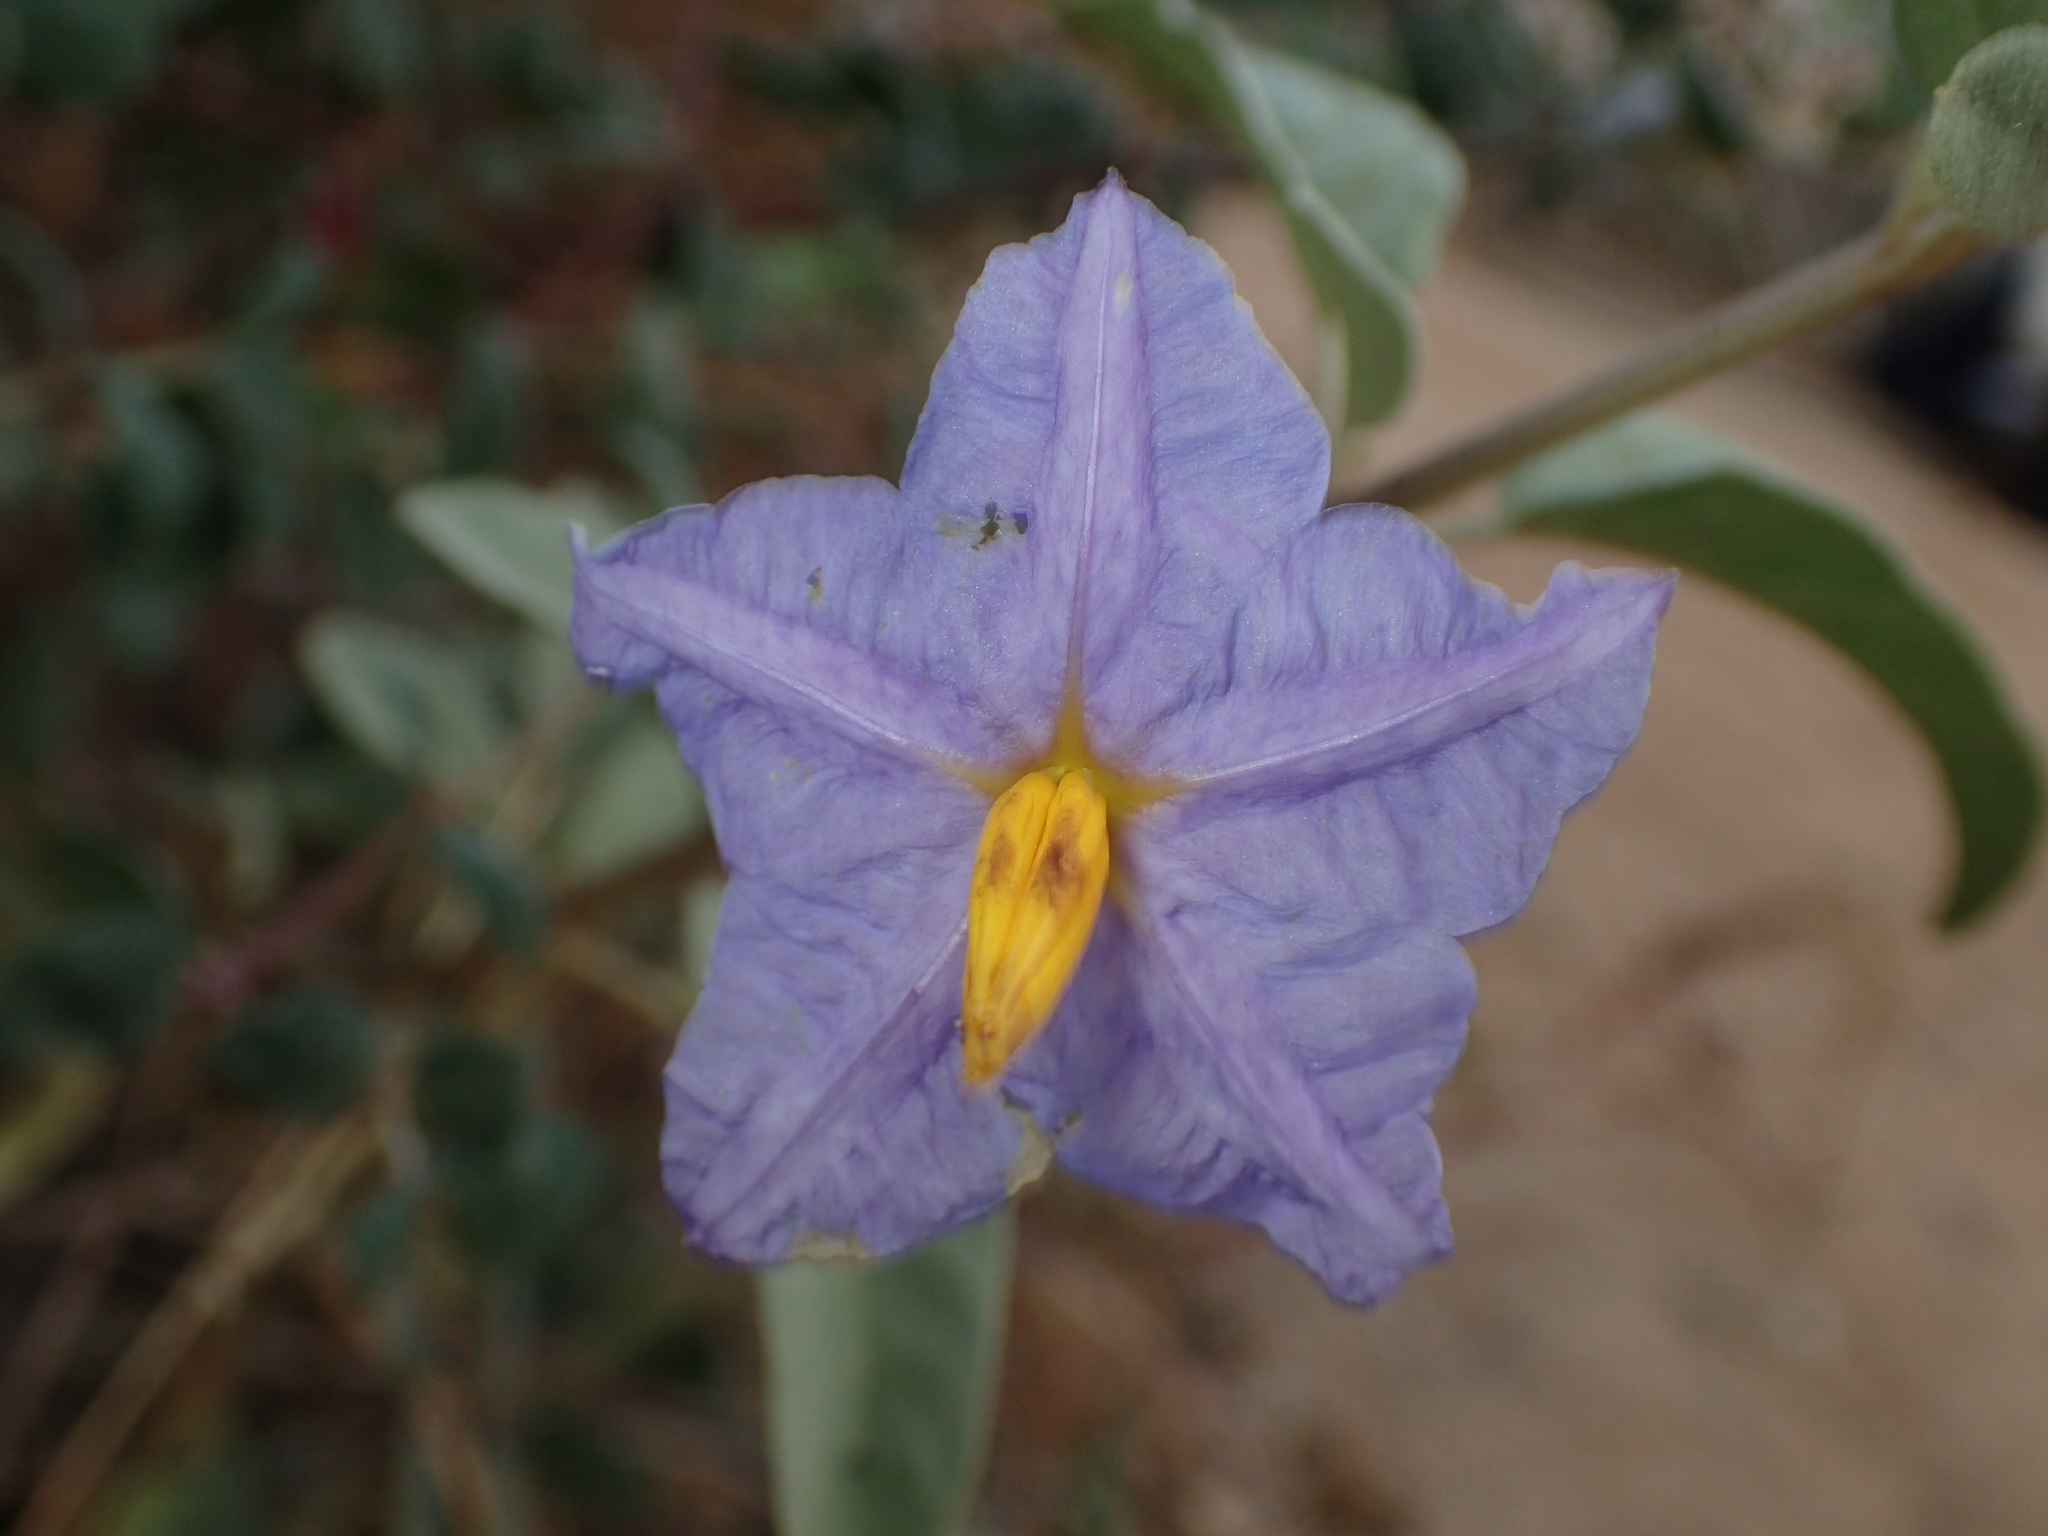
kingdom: Plantae
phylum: Tracheophyta
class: Magnoliopsida
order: Solanales
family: Solanaceae
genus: Solanum
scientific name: Solanum hindsianum
